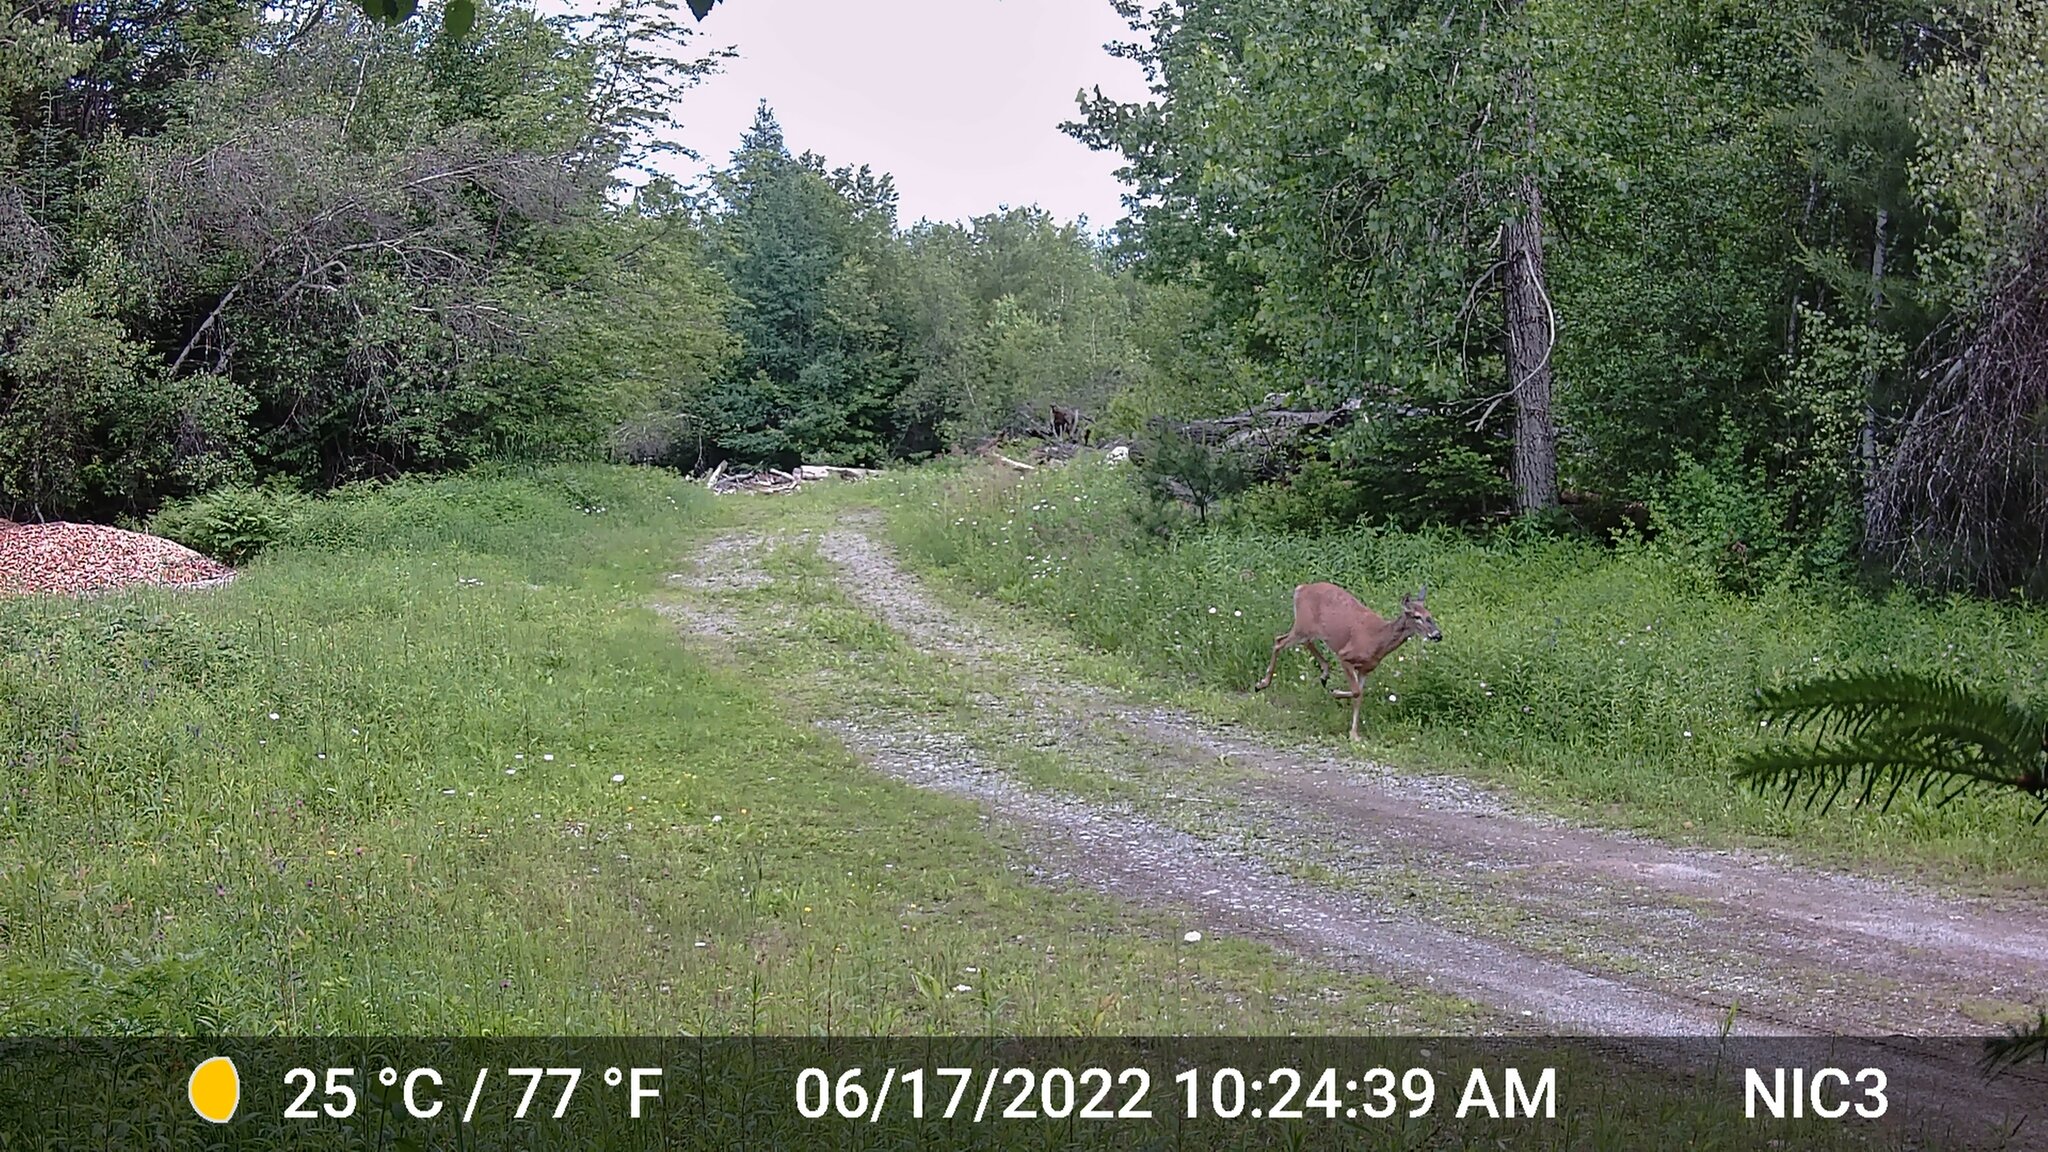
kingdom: Animalia
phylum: Chordata
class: Mammalia
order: Artiodactyla
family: Cervidae
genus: Odocoileus
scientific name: Odocoileus virginianus
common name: White-tailed deer
